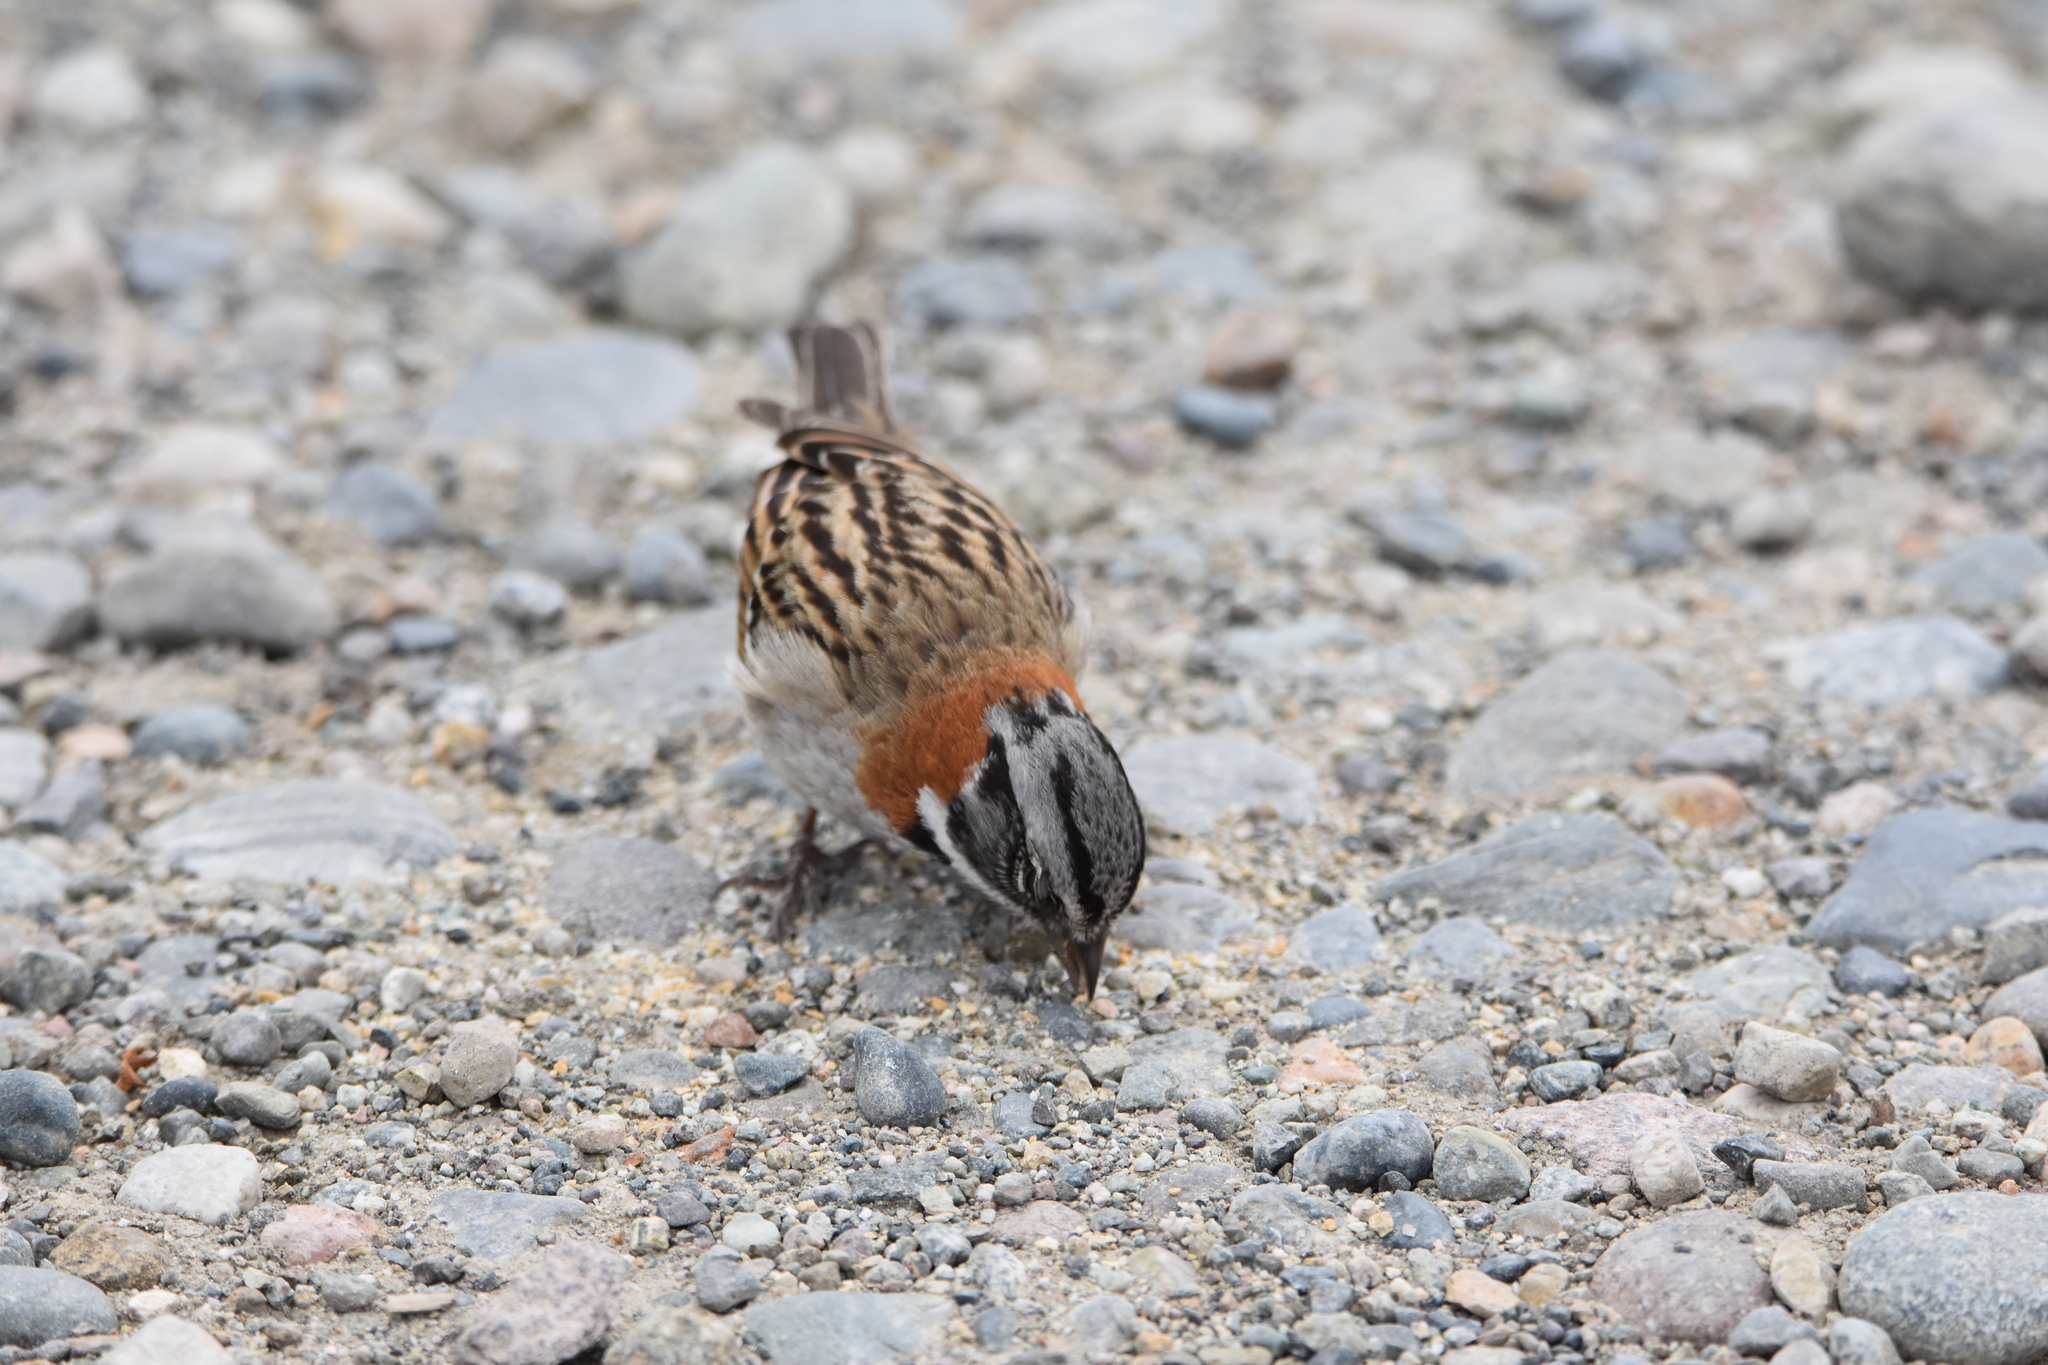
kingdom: Animalia
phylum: Chordata
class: Aves
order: Passeriformes
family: Passerellidae
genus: Zonotrichia
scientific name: Zonotrichia capensis
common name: Rufous-collared sparrow
